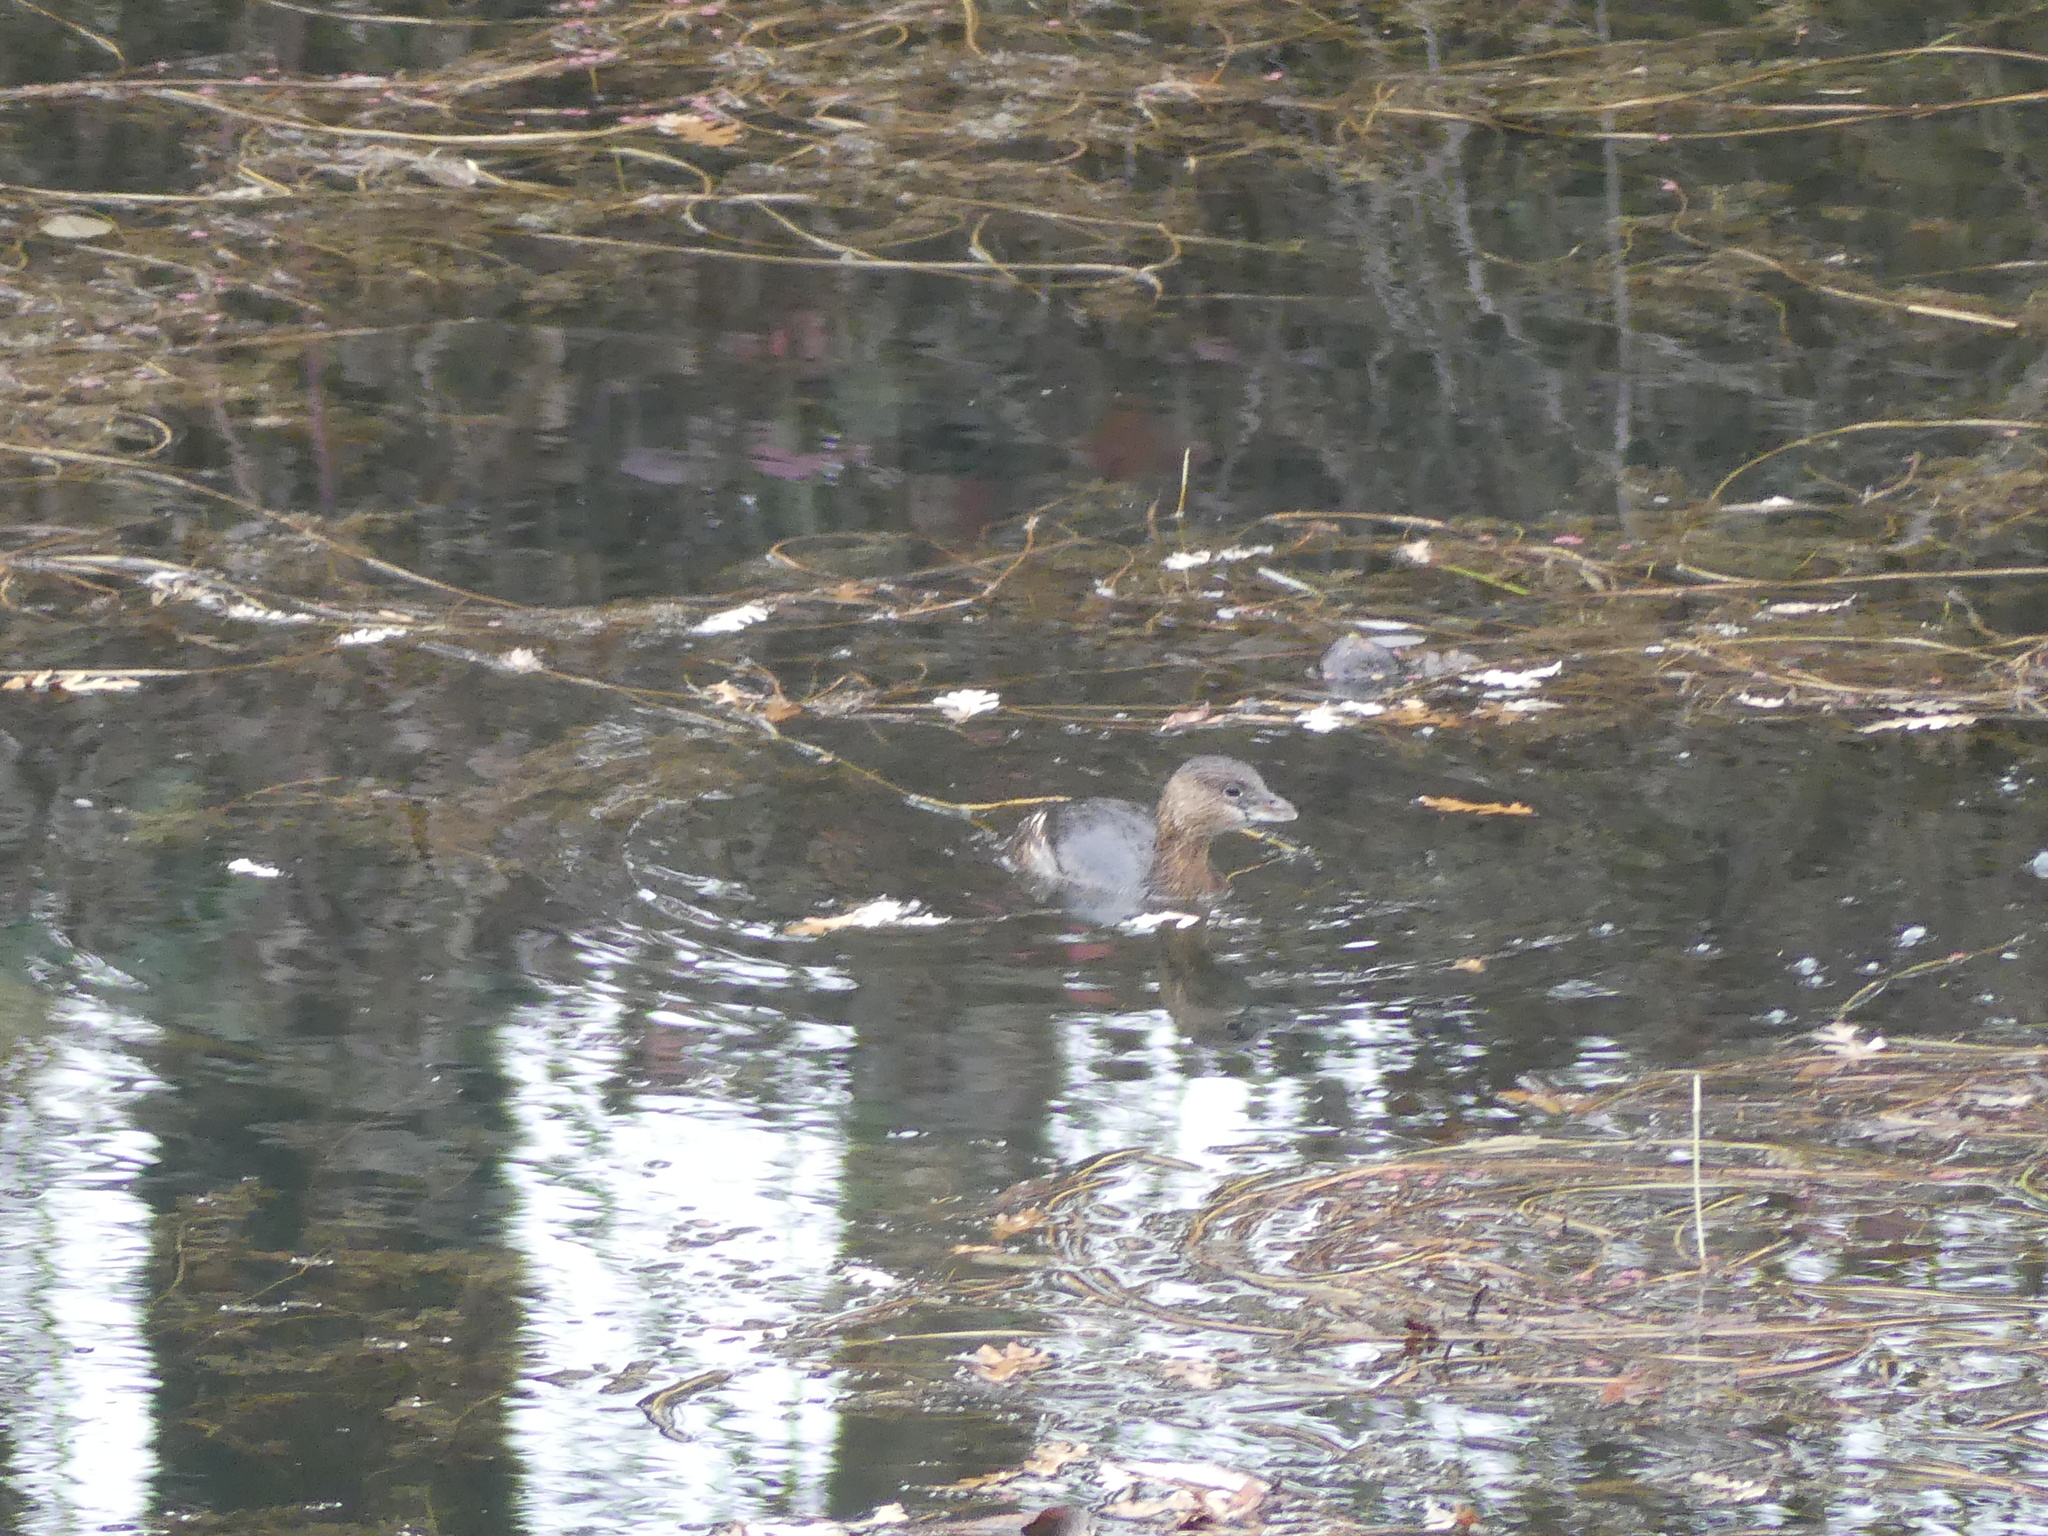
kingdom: Animalia
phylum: Chordata
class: Aves
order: Podicipediformes
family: Podicipedidae
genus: Podilymbus
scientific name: Podilymbus podiceps
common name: Pied-billed grebe
